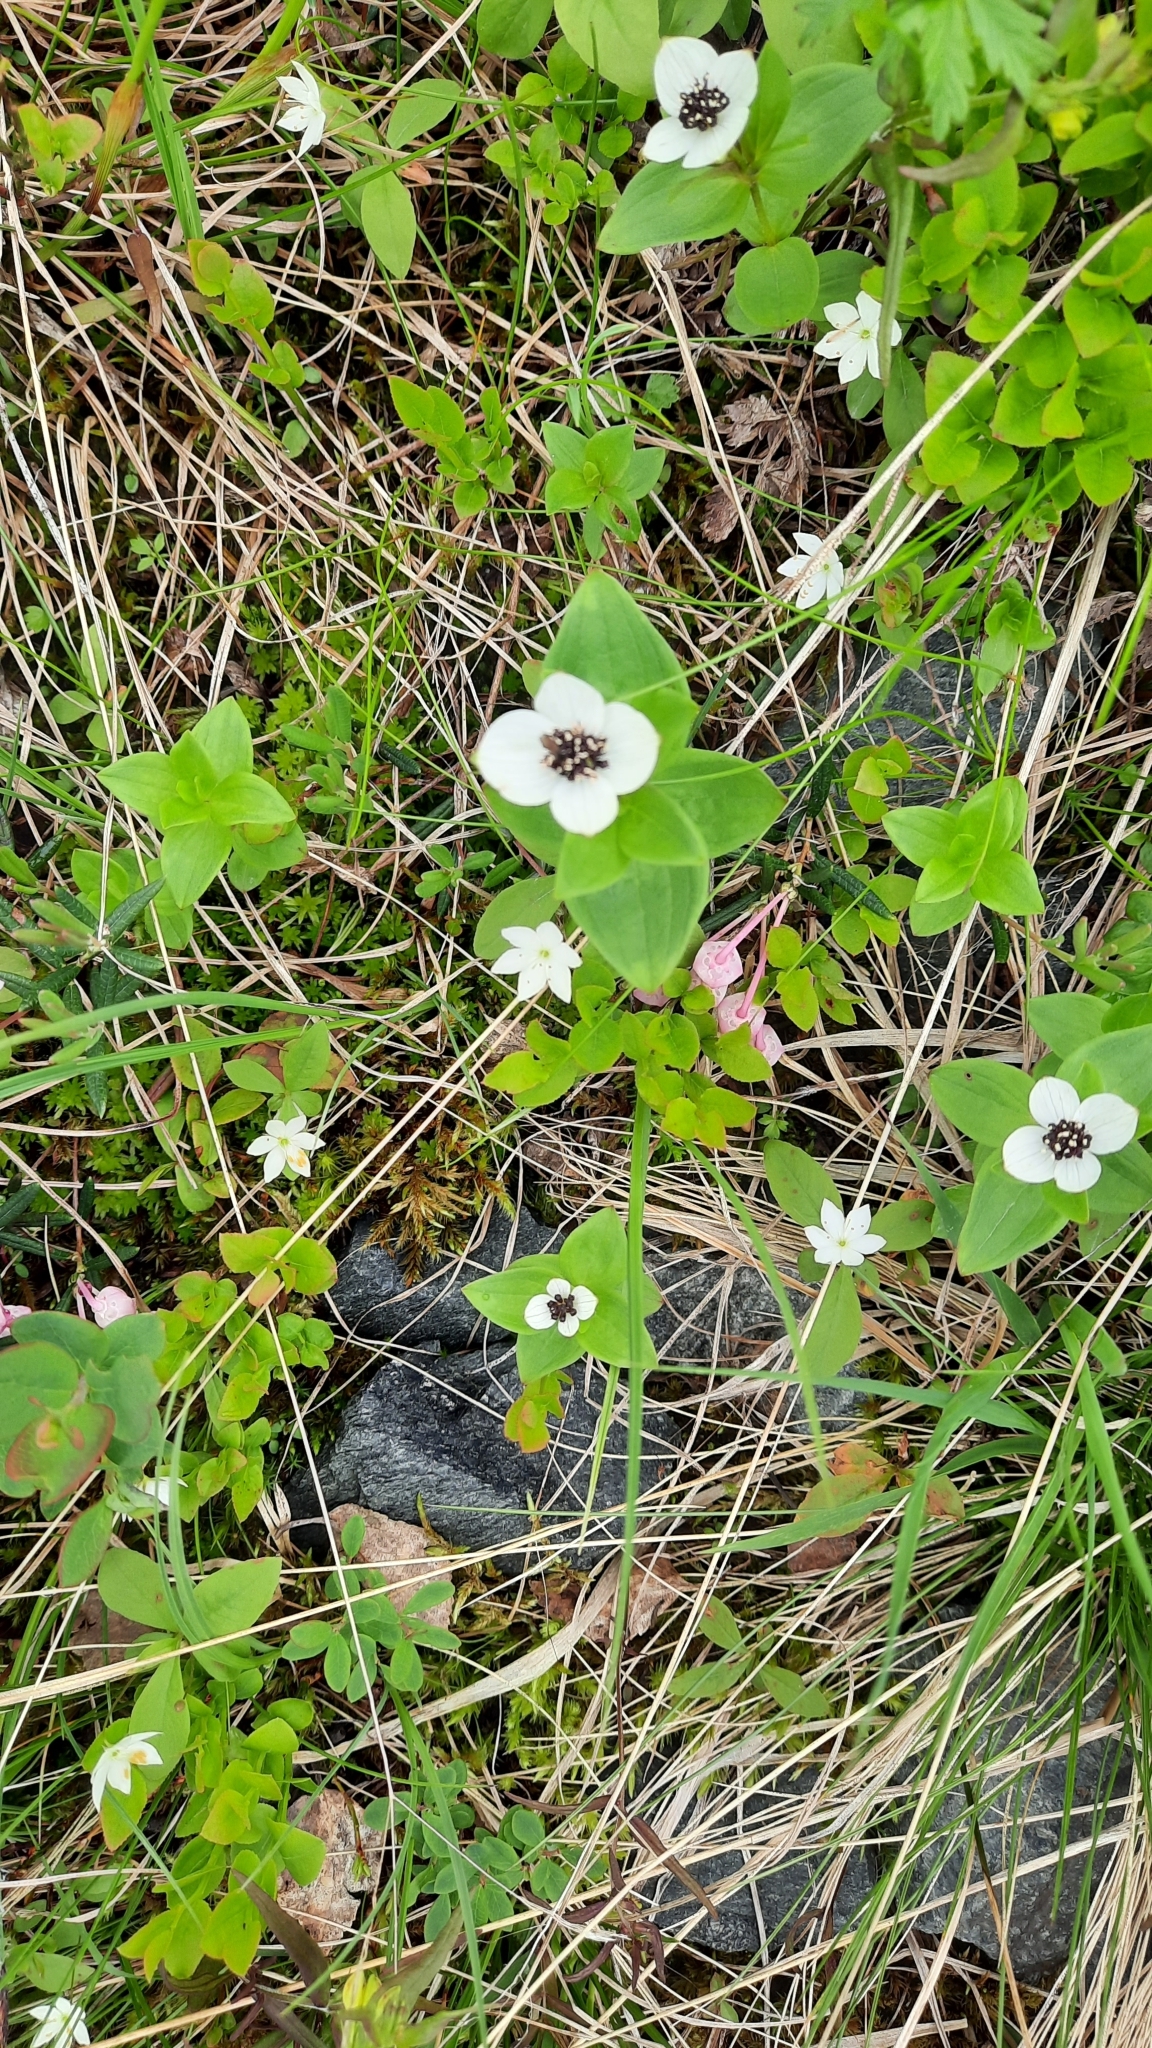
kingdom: Plantae
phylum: Tracheophyta
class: Magnoliopsida
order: Cornales
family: Cornaceae
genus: Cornus
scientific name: Cornus suecica
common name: Dwarf cornel
